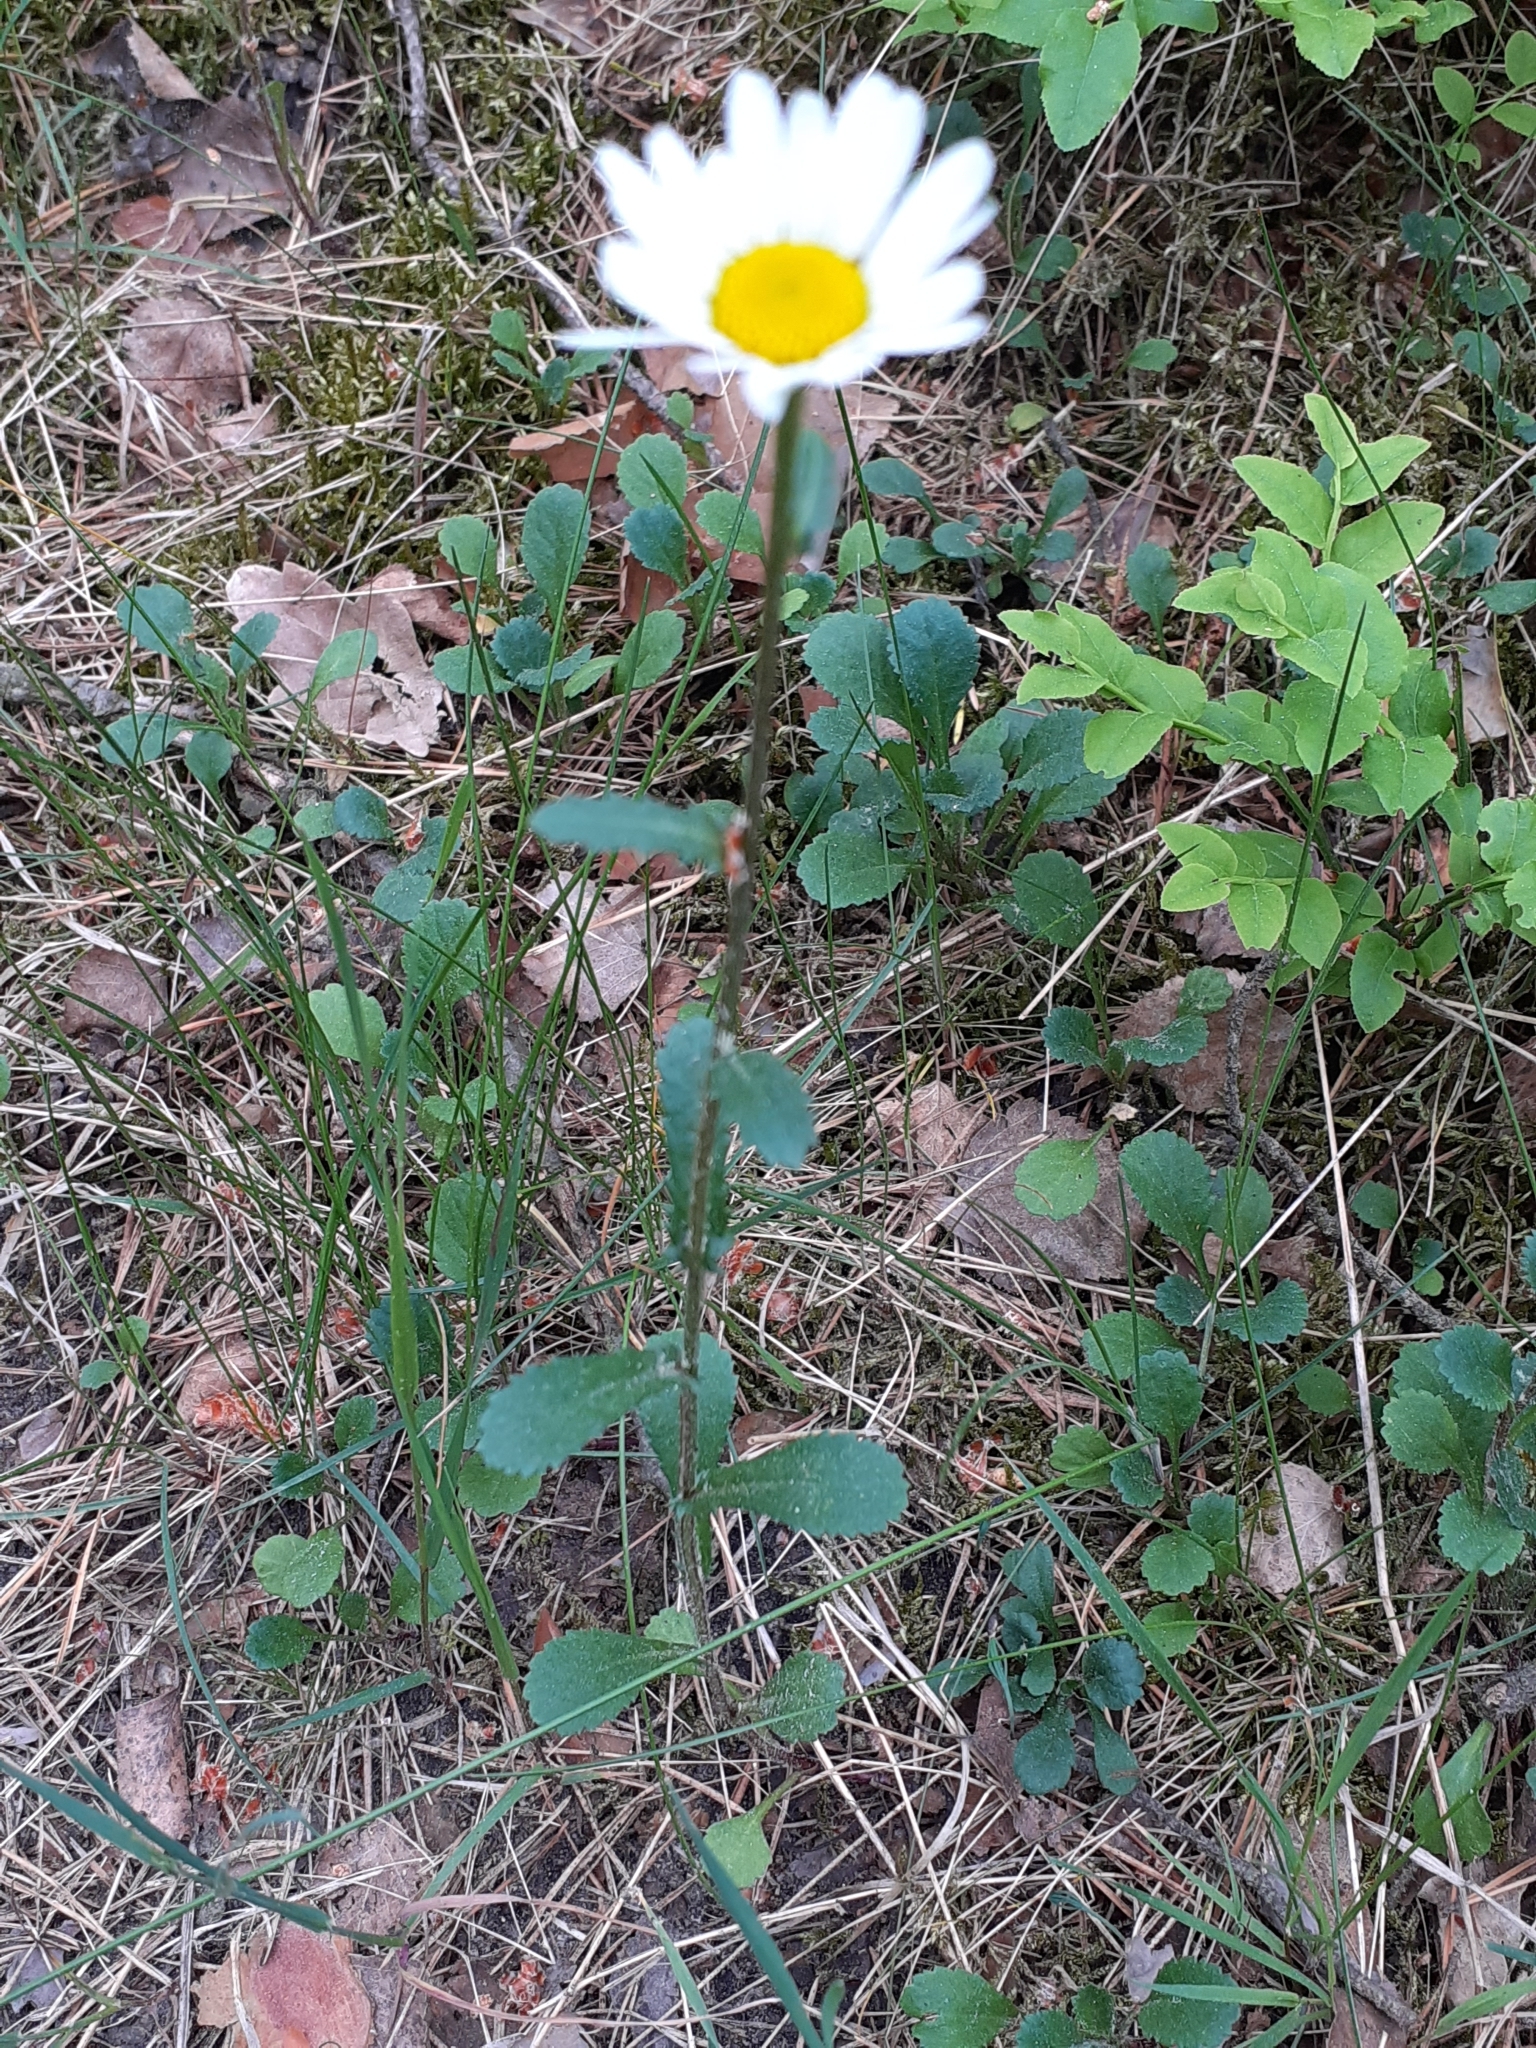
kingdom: Plantae
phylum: Tracheophyta
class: Magnoliopsida
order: Asterales
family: Asteraceae
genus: Leucanthemum
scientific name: Leucanthemum vulgare
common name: Oxeye daisy
